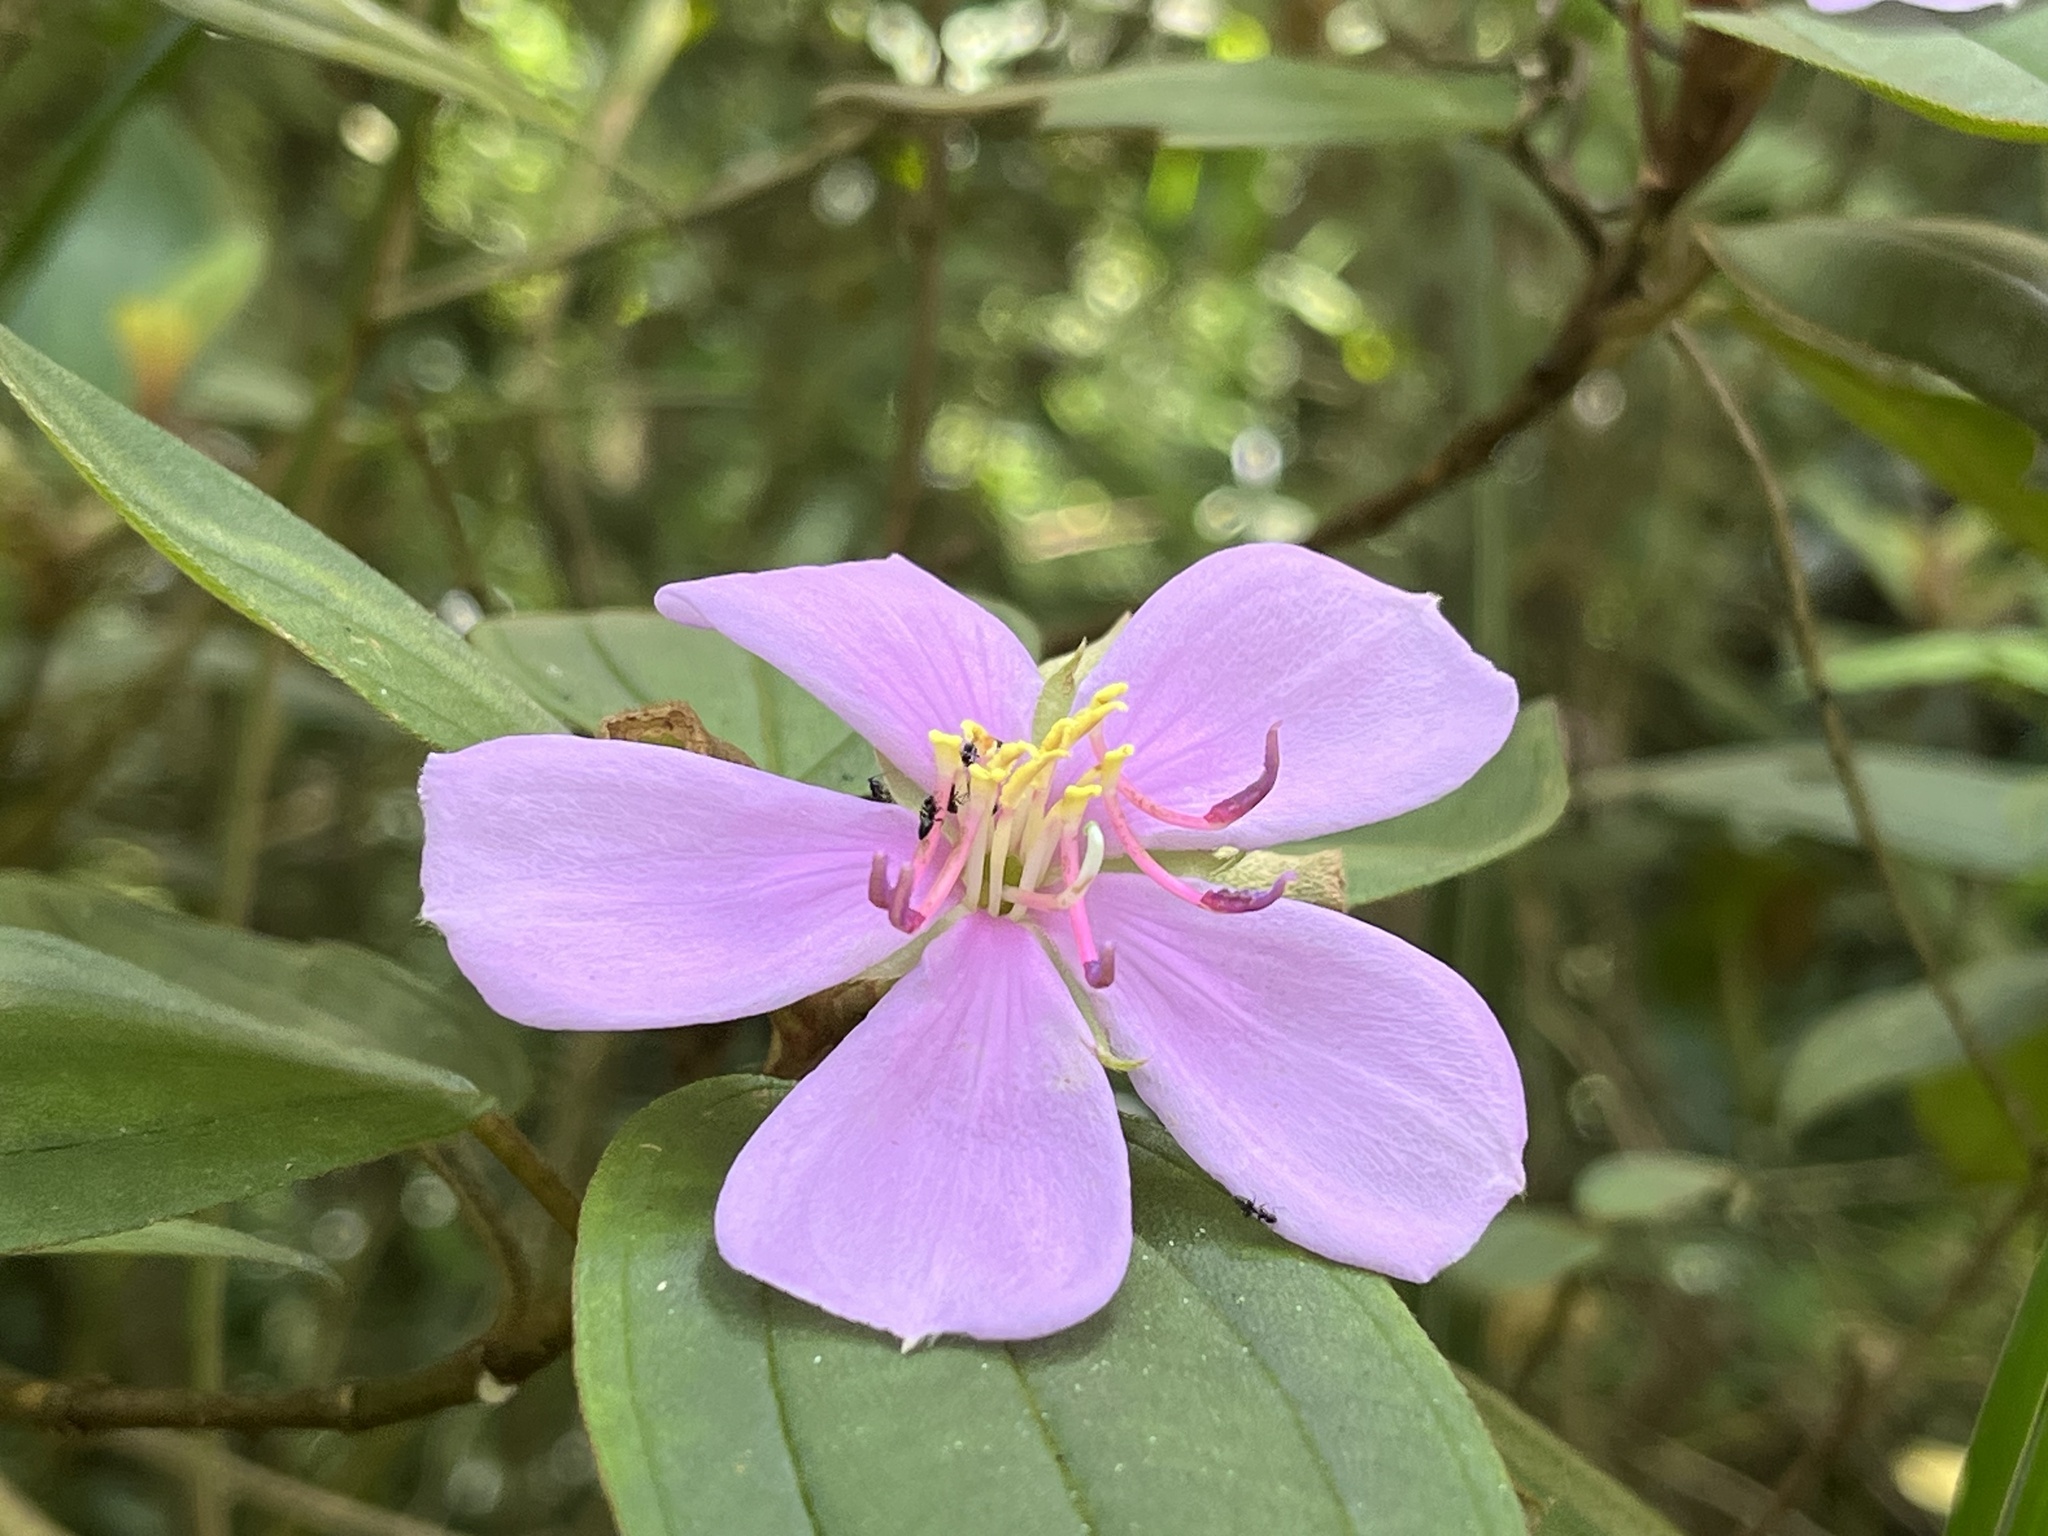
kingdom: Plantae
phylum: Tracheophyta
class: Magnoliopsida
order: Myrtales
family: Melastomataceae
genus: Melastoma
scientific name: Melastoma malabathricum
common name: Indian-rhododendron
